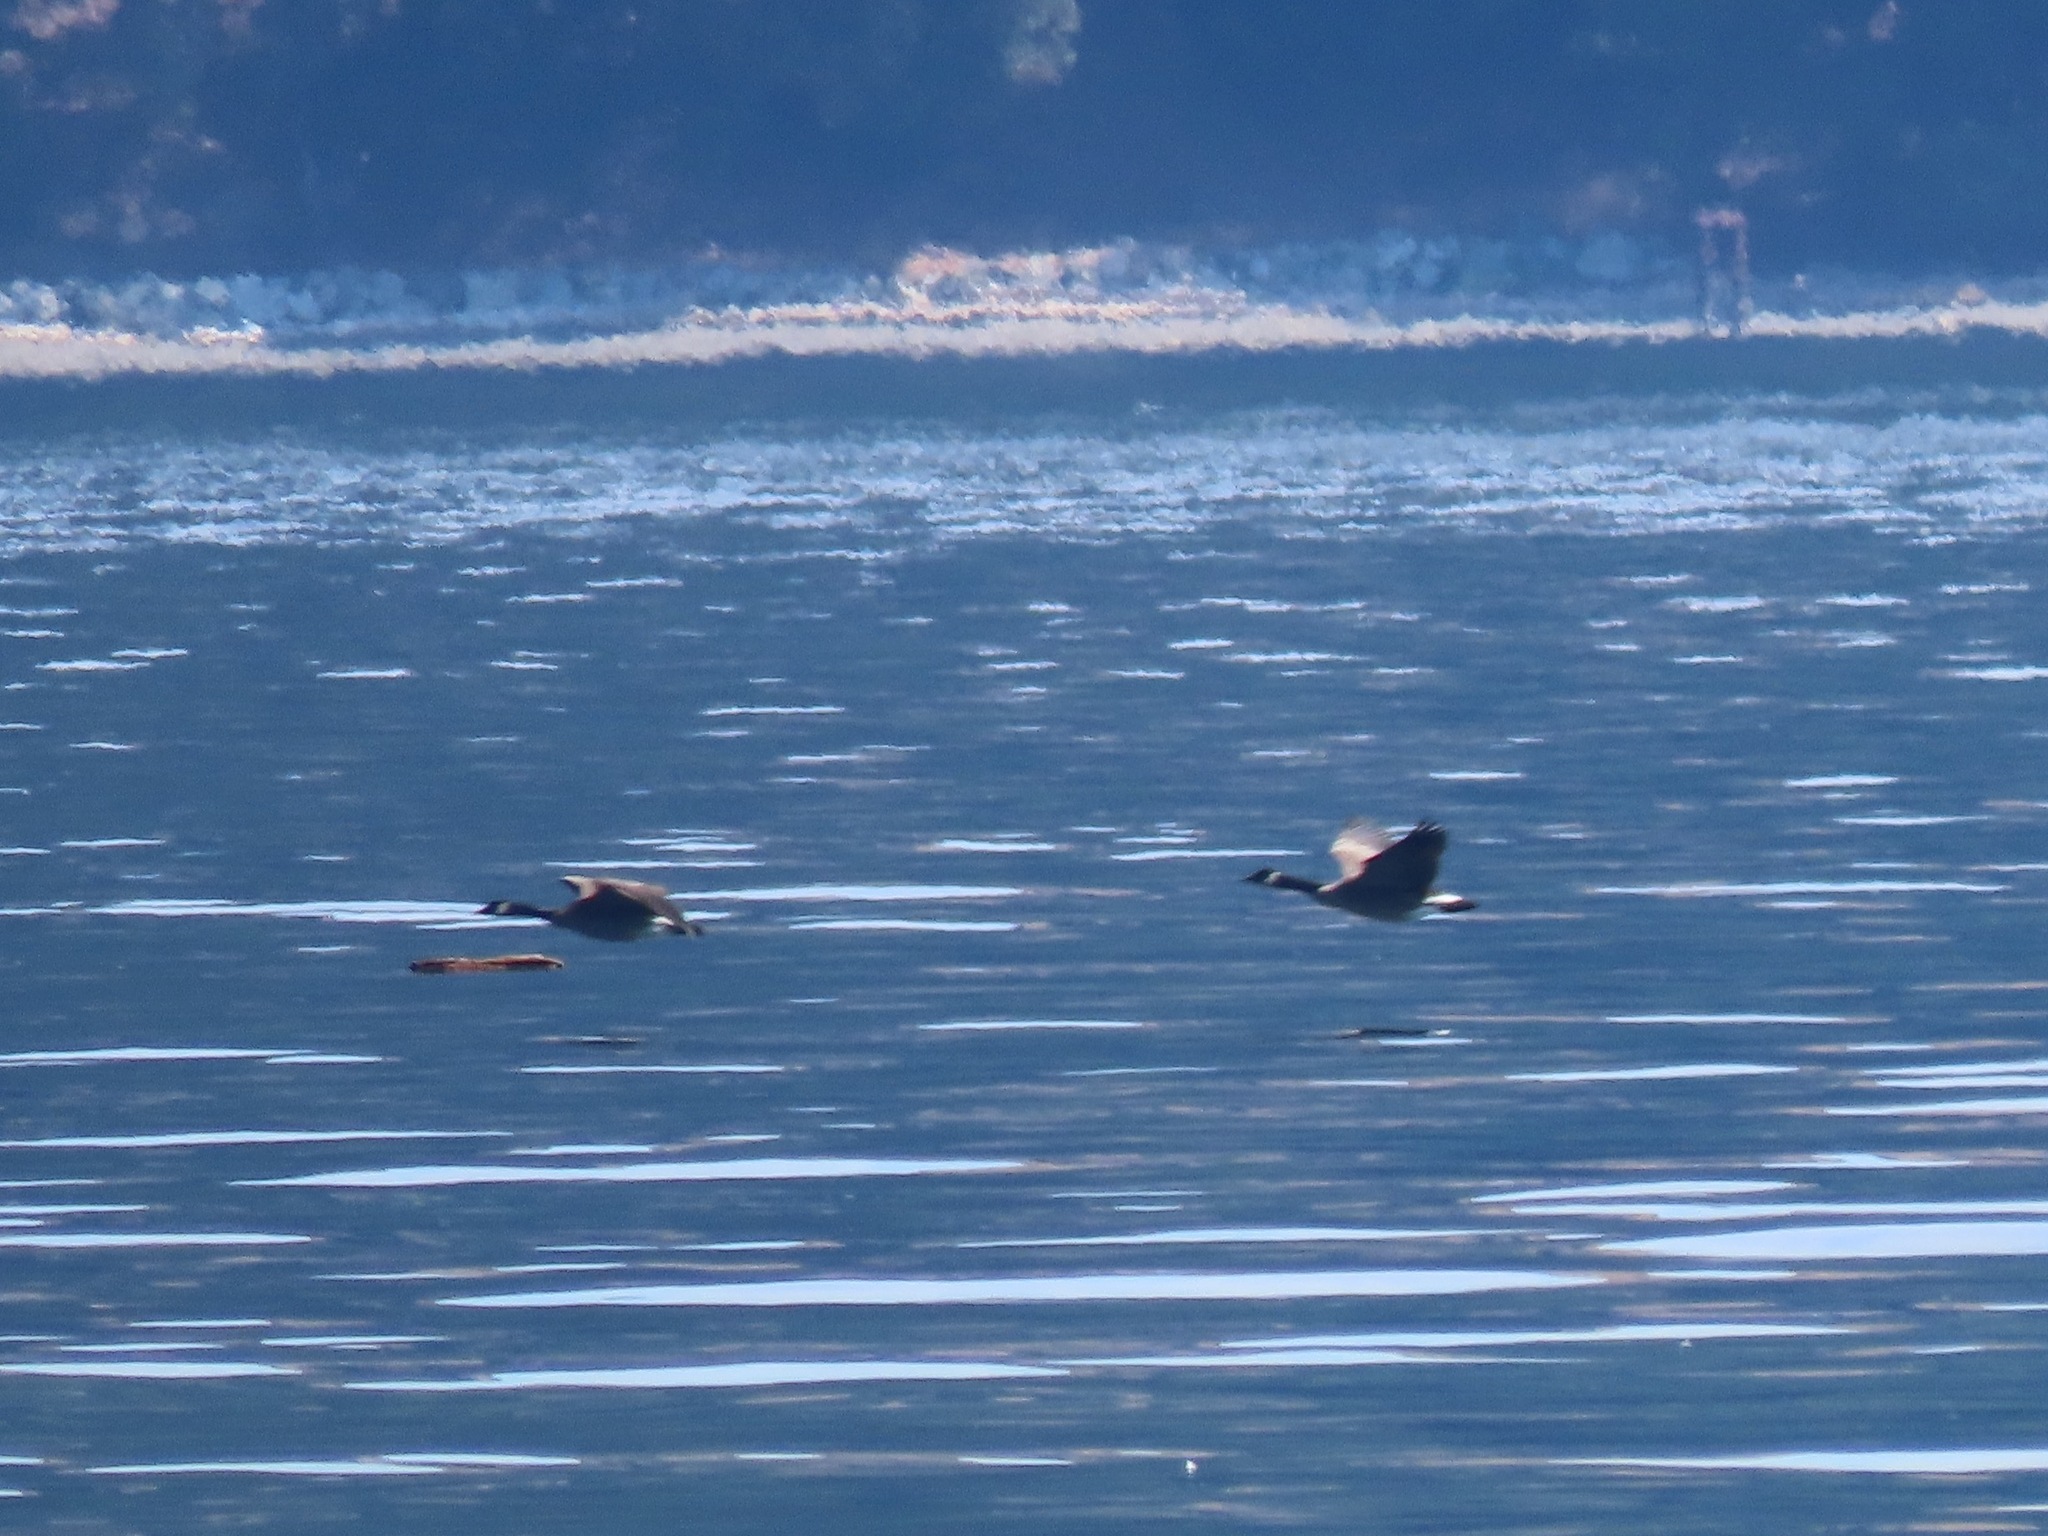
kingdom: Animalia
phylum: Chordata
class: Aves
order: Anseriformes
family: Anatidae
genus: Branta
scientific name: Branta canadensis
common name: Canada goose
